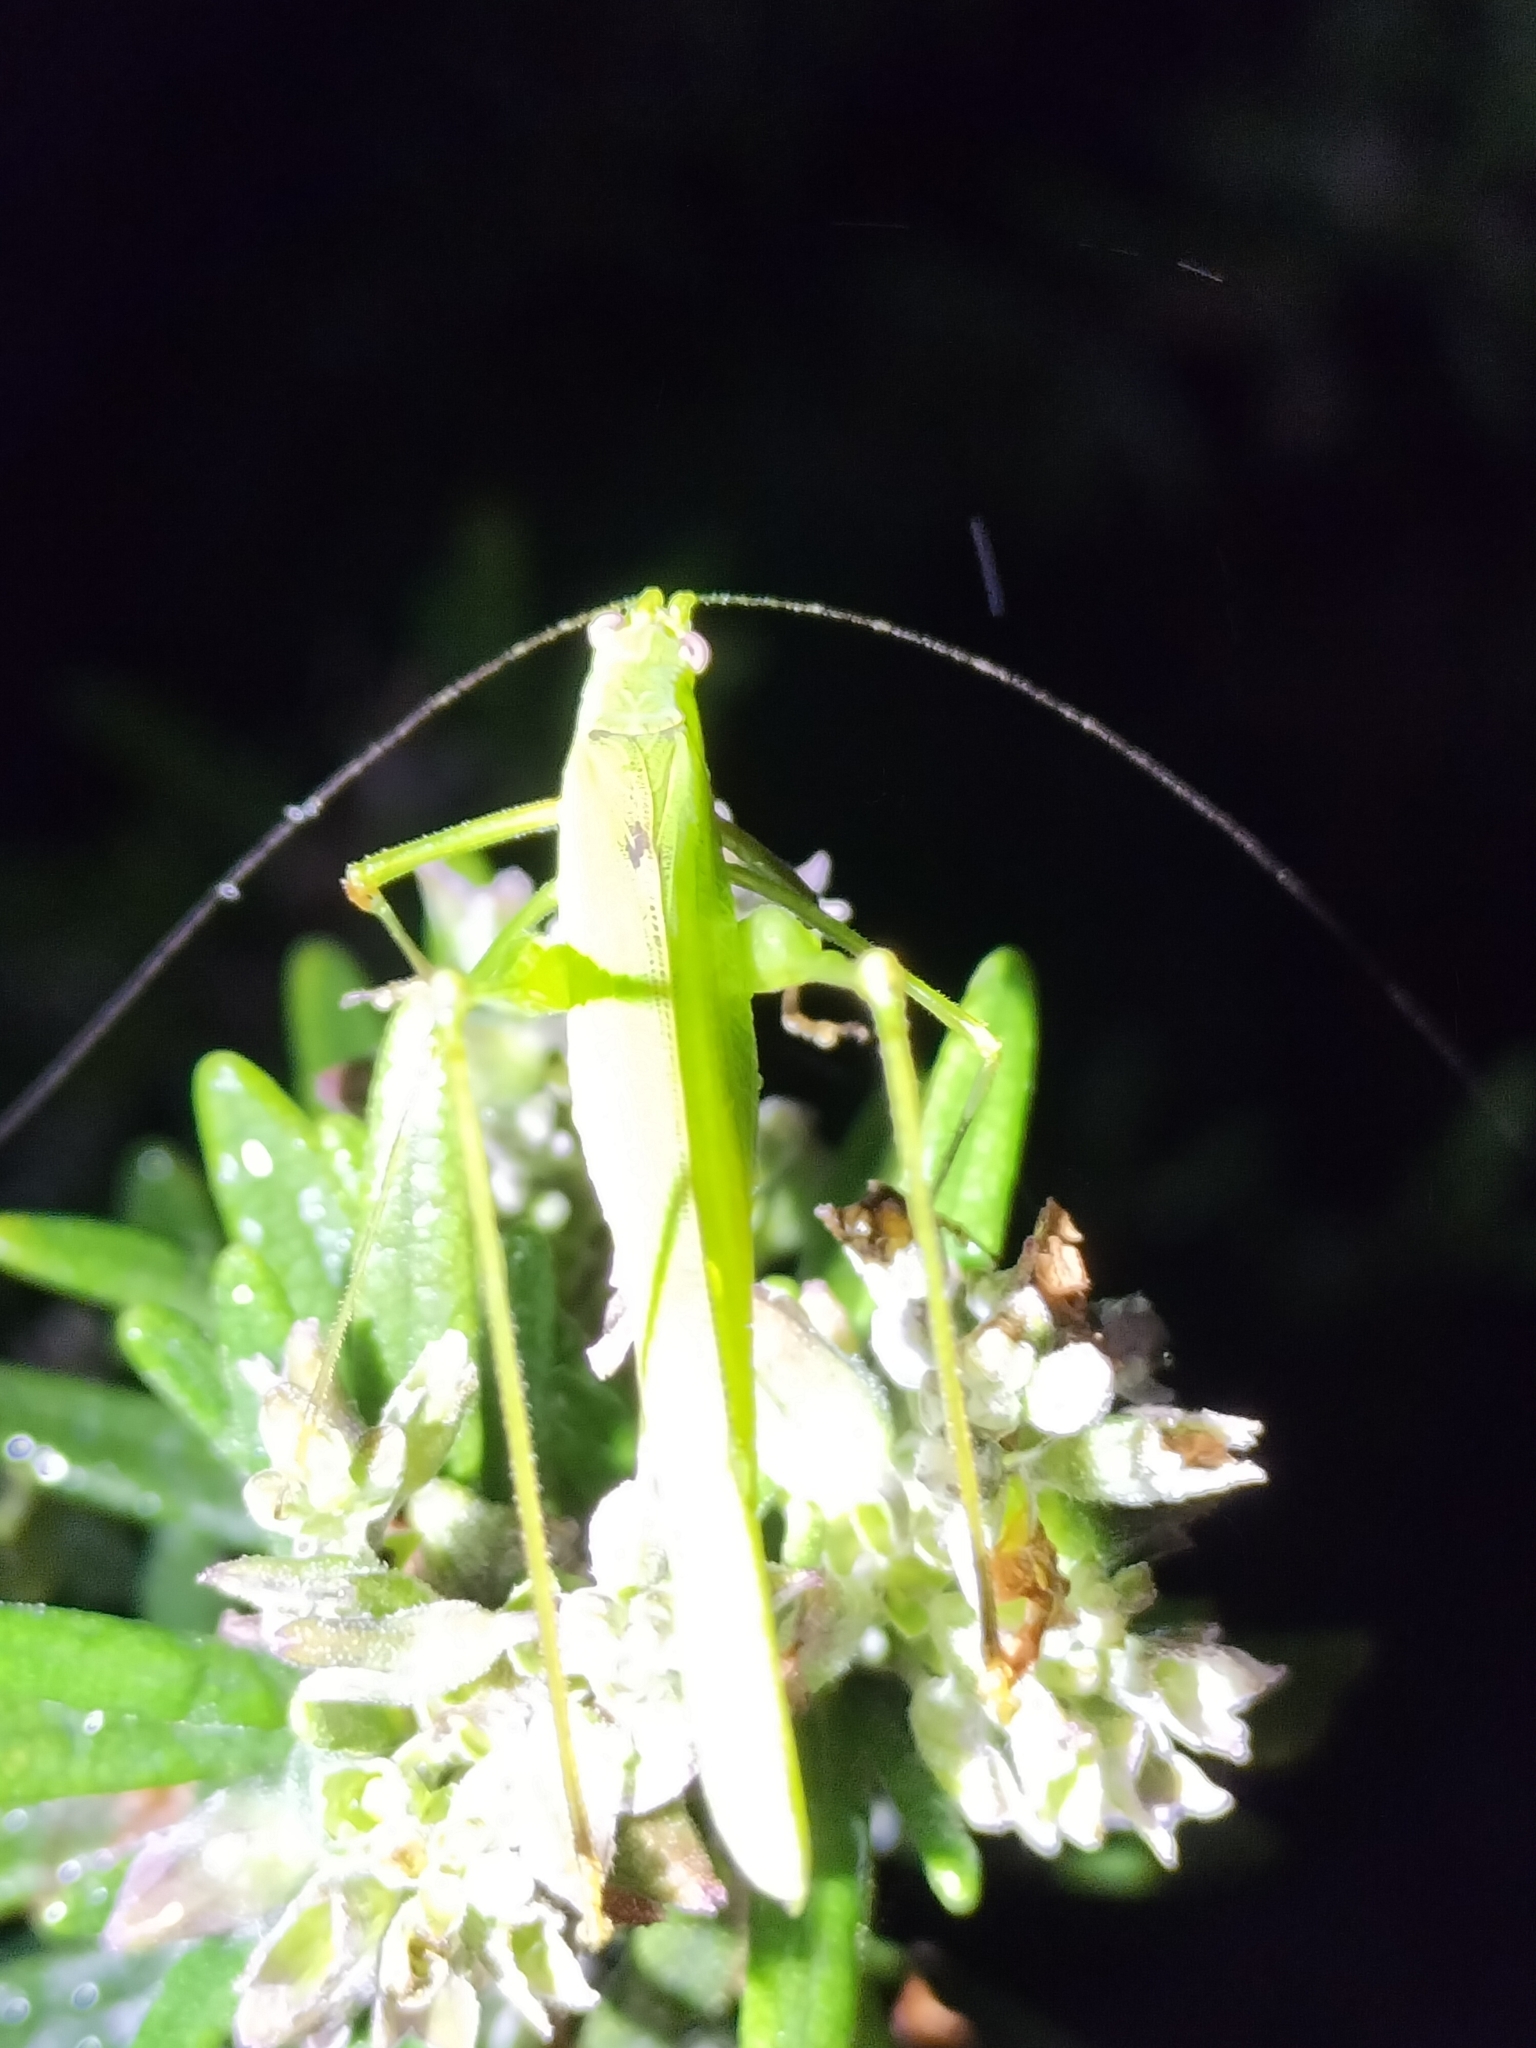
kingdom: Animalia
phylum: Arthropoda
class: Insecta
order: Orthoptera
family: Tettigoniidae
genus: Phaneroptera
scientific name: Phaneroptera brevis
